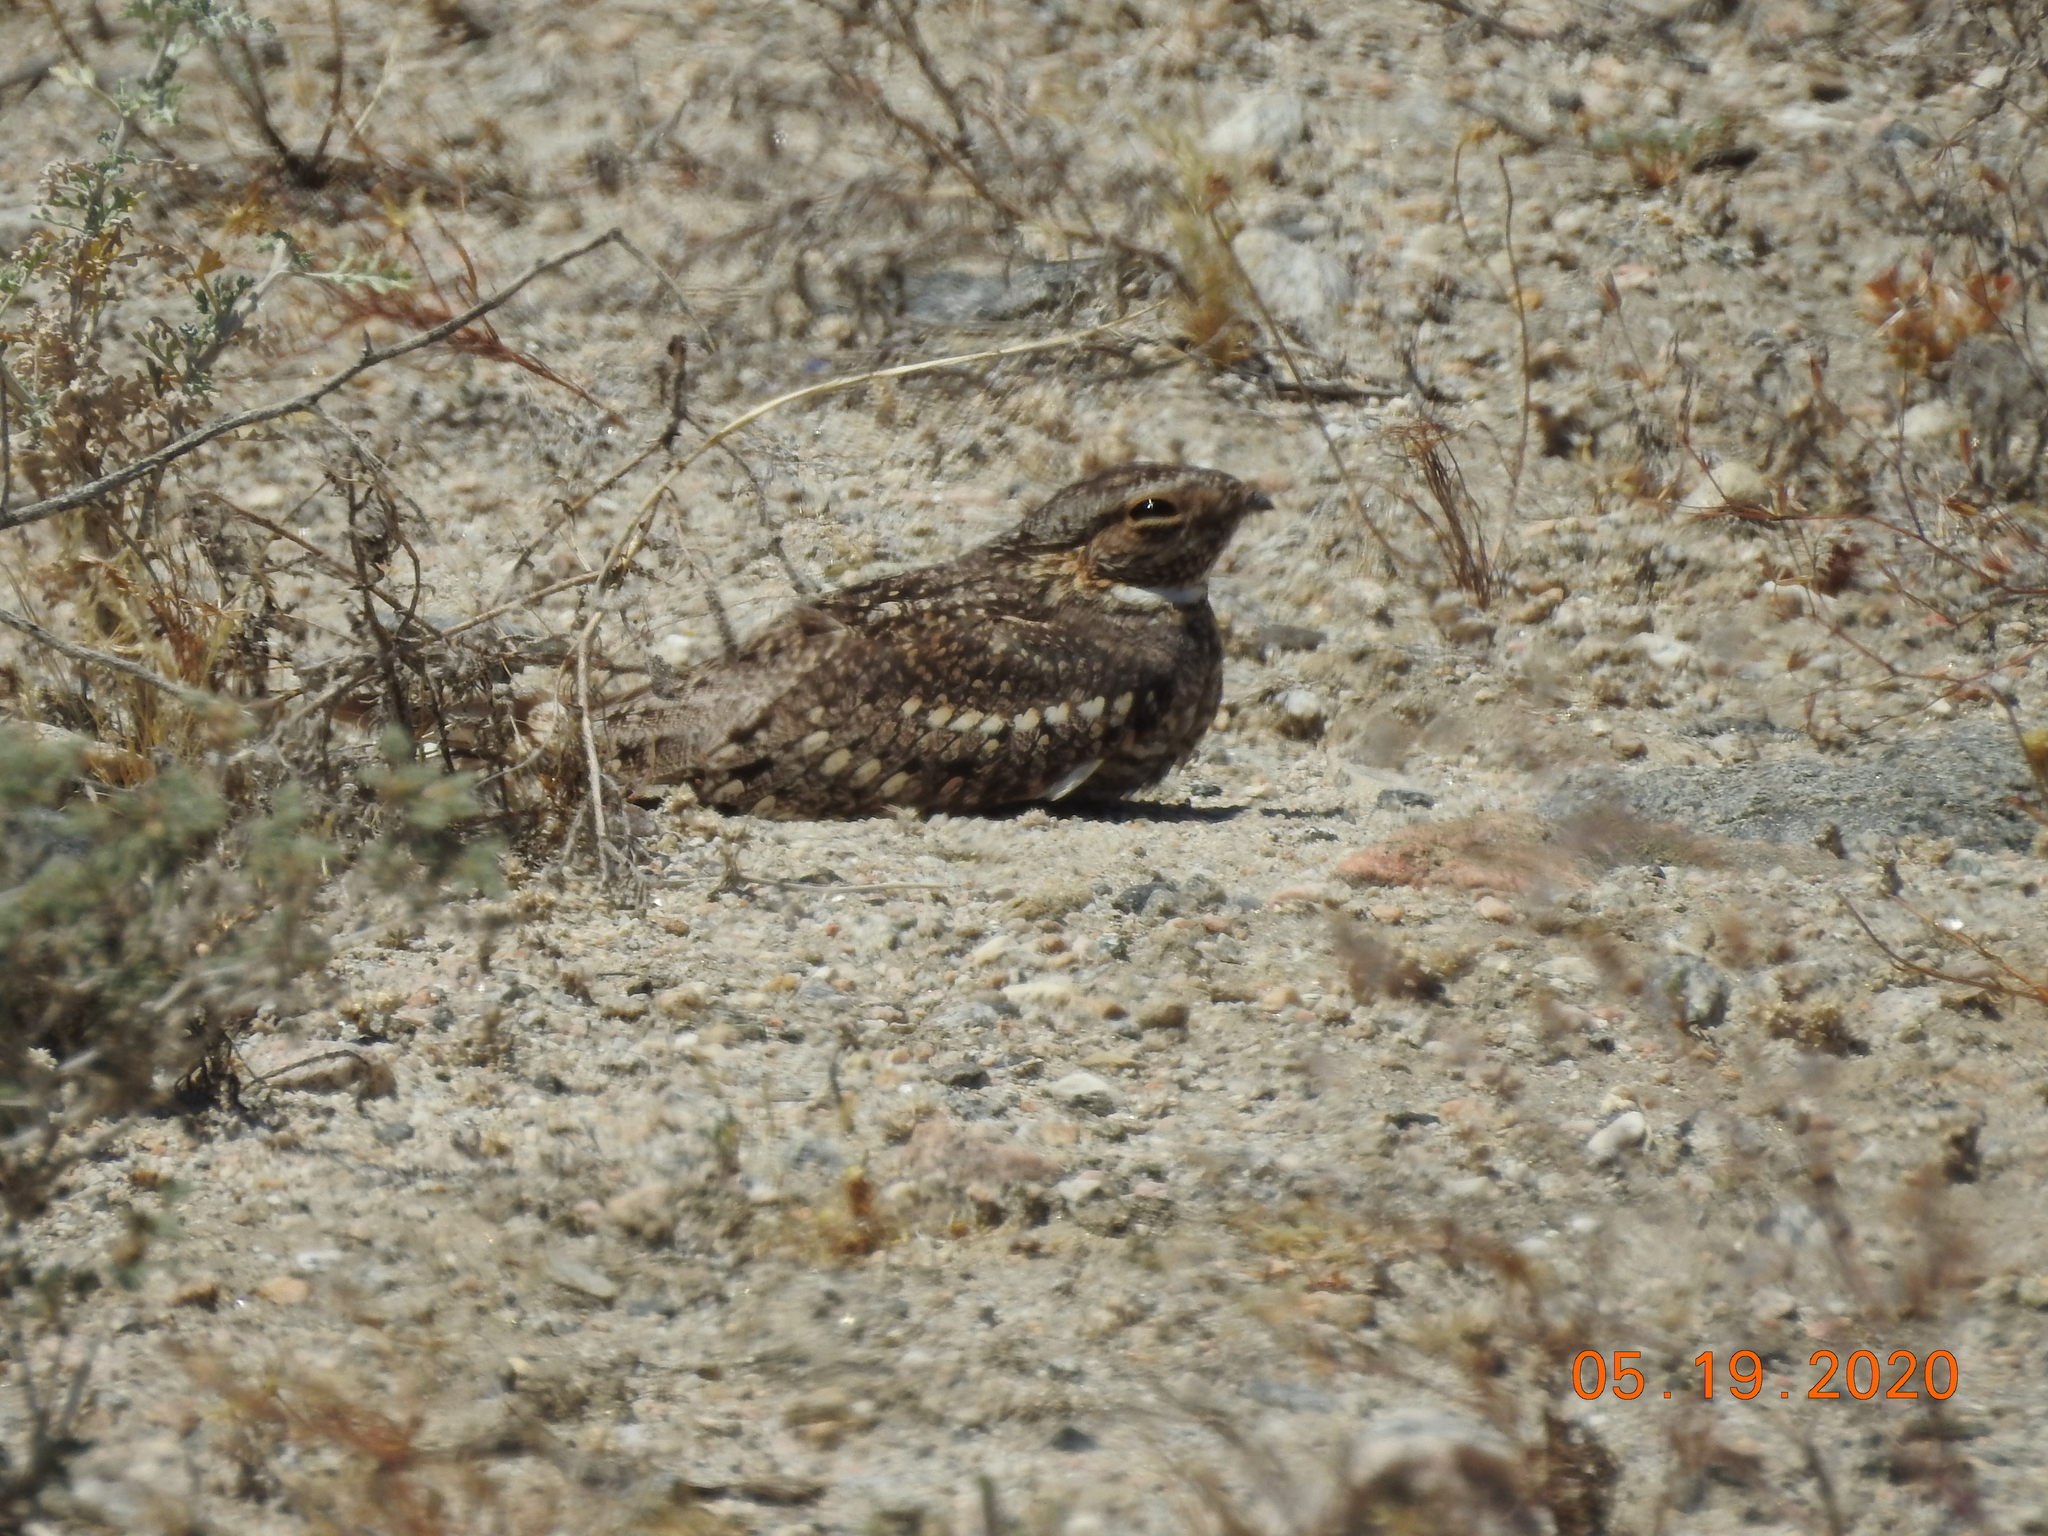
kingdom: Animalia
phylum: Chordata
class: Aves
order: Caprimulgiformes
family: Caprimulgidae
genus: Chordeiles
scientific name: Chordeiles acutipennis
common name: Lesser nighthawk
